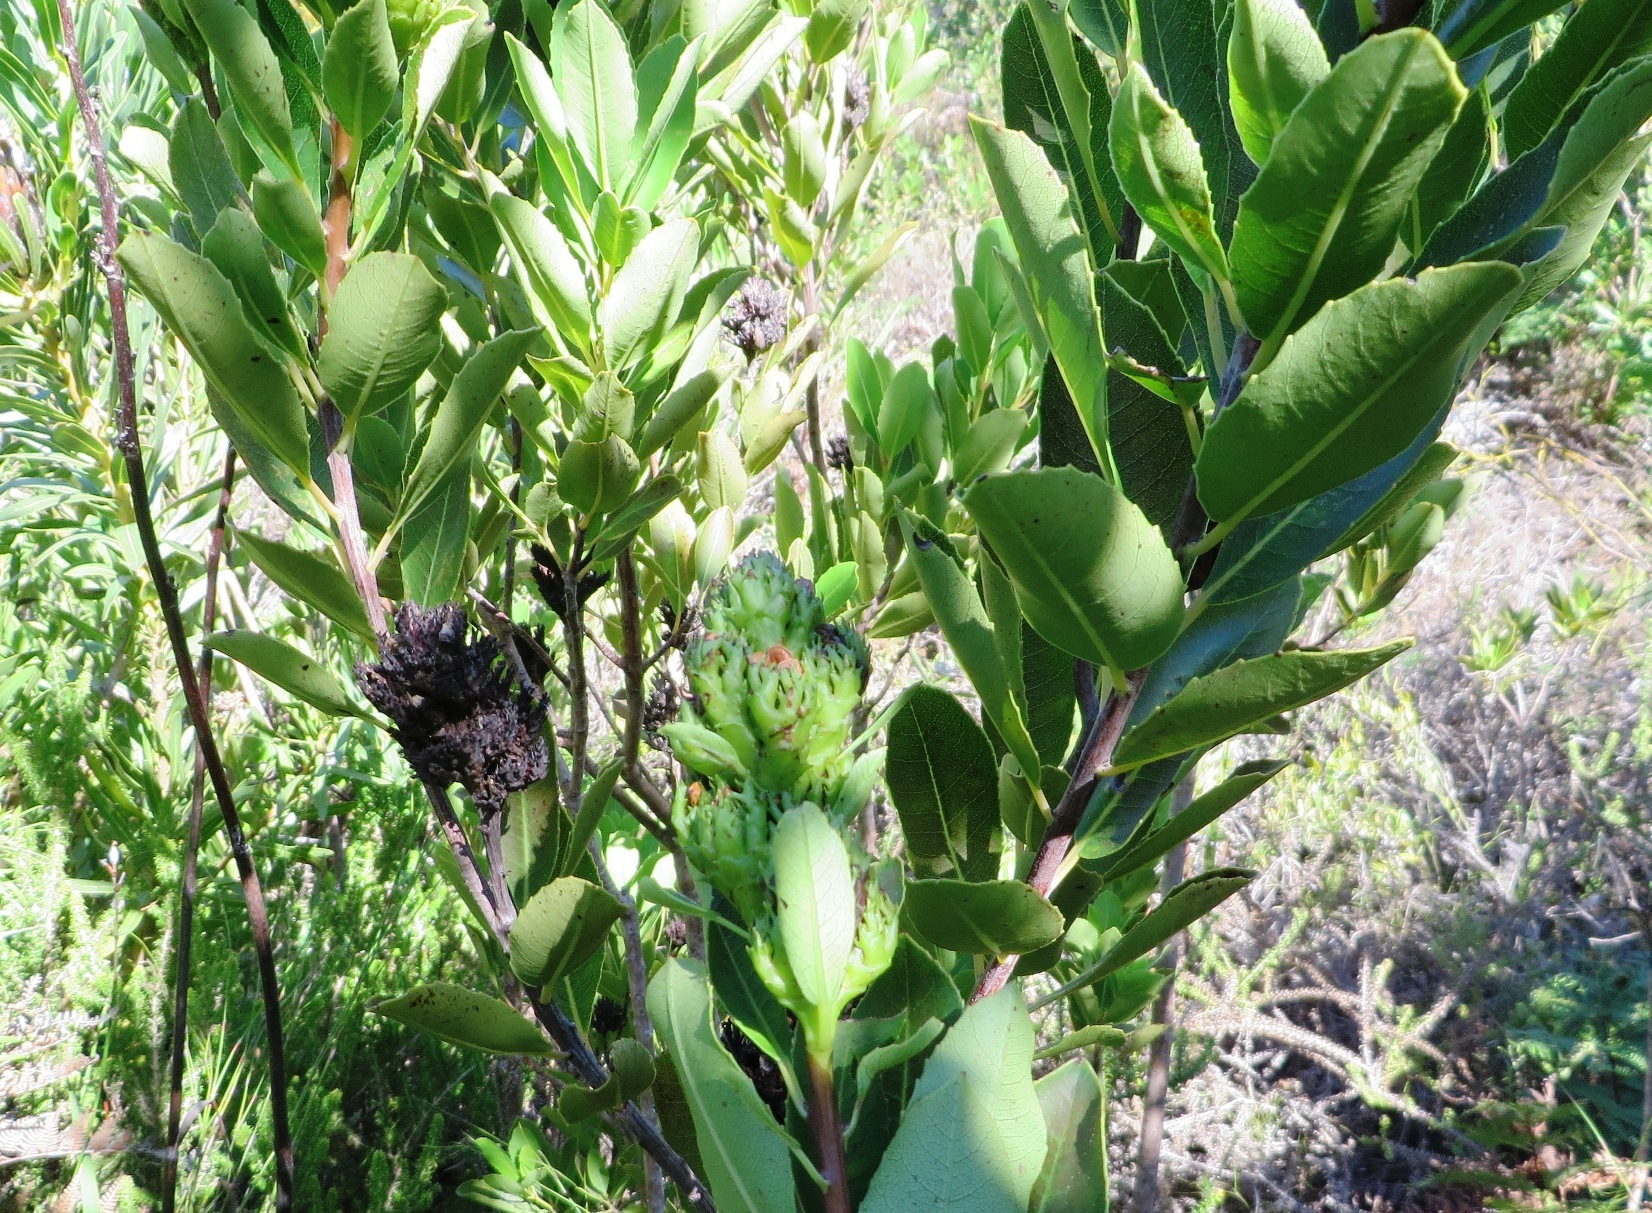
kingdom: Plantae
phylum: Tracheophyta
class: Magnoliopsida
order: Sapindales
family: Anacardiaceae
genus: Laurophyllus
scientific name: Laurophyllus capensis
